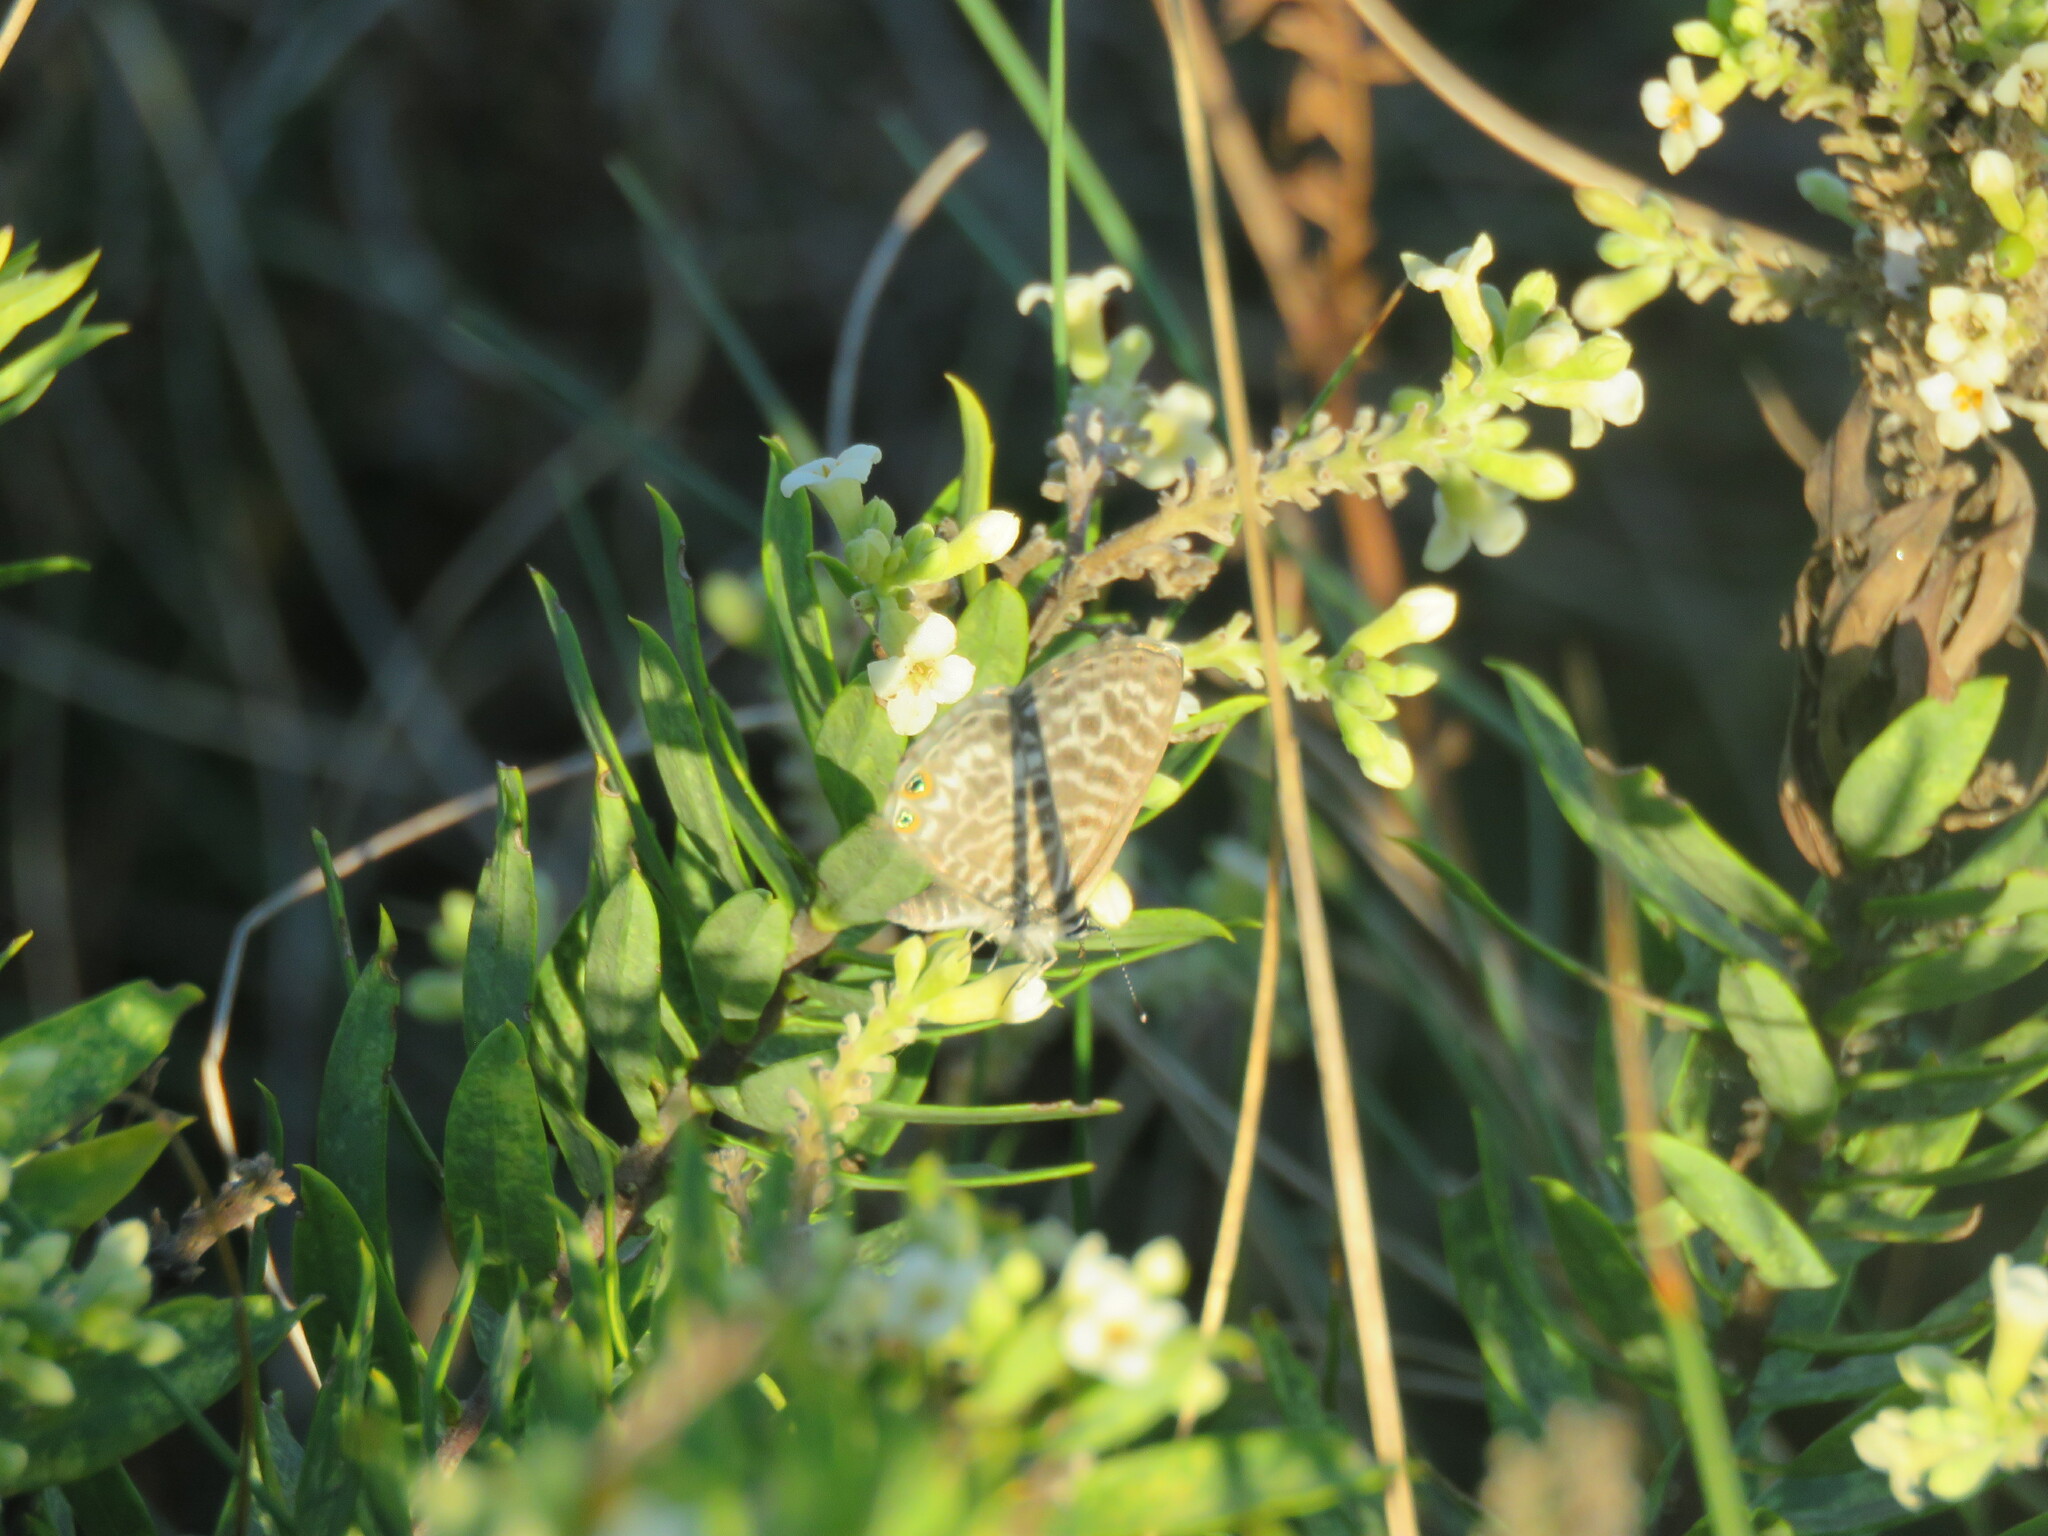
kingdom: Animalia
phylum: Arthropoda
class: Insecta
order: Lepidoptera
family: Lycaenidae
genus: Leptotes
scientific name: Leptotes pirithous
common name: Lang's short-tailed blue
